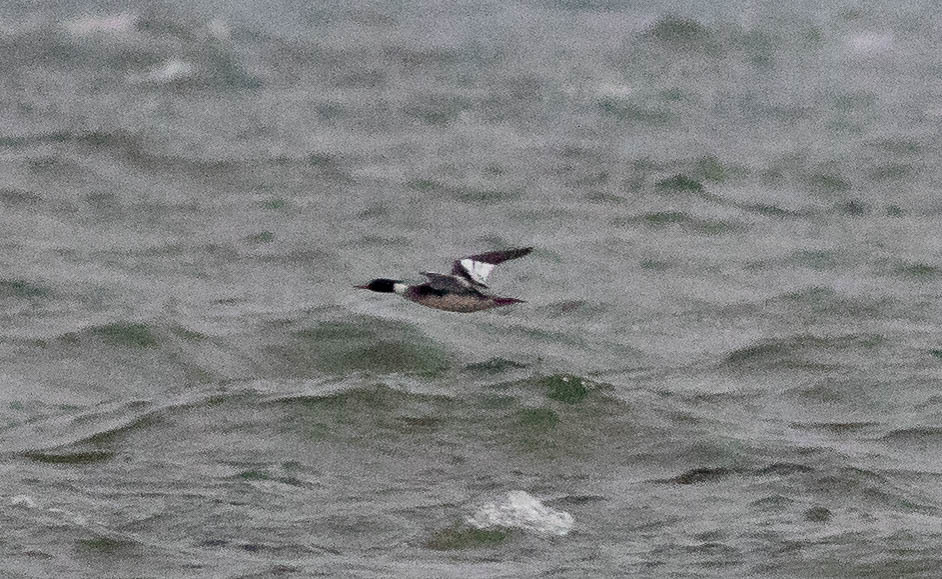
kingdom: Animalia
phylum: Chordata
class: Aves
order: Anseriformes
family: Anatidae
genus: Mergus
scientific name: Mergus serrator
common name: Red-breasted merganser
